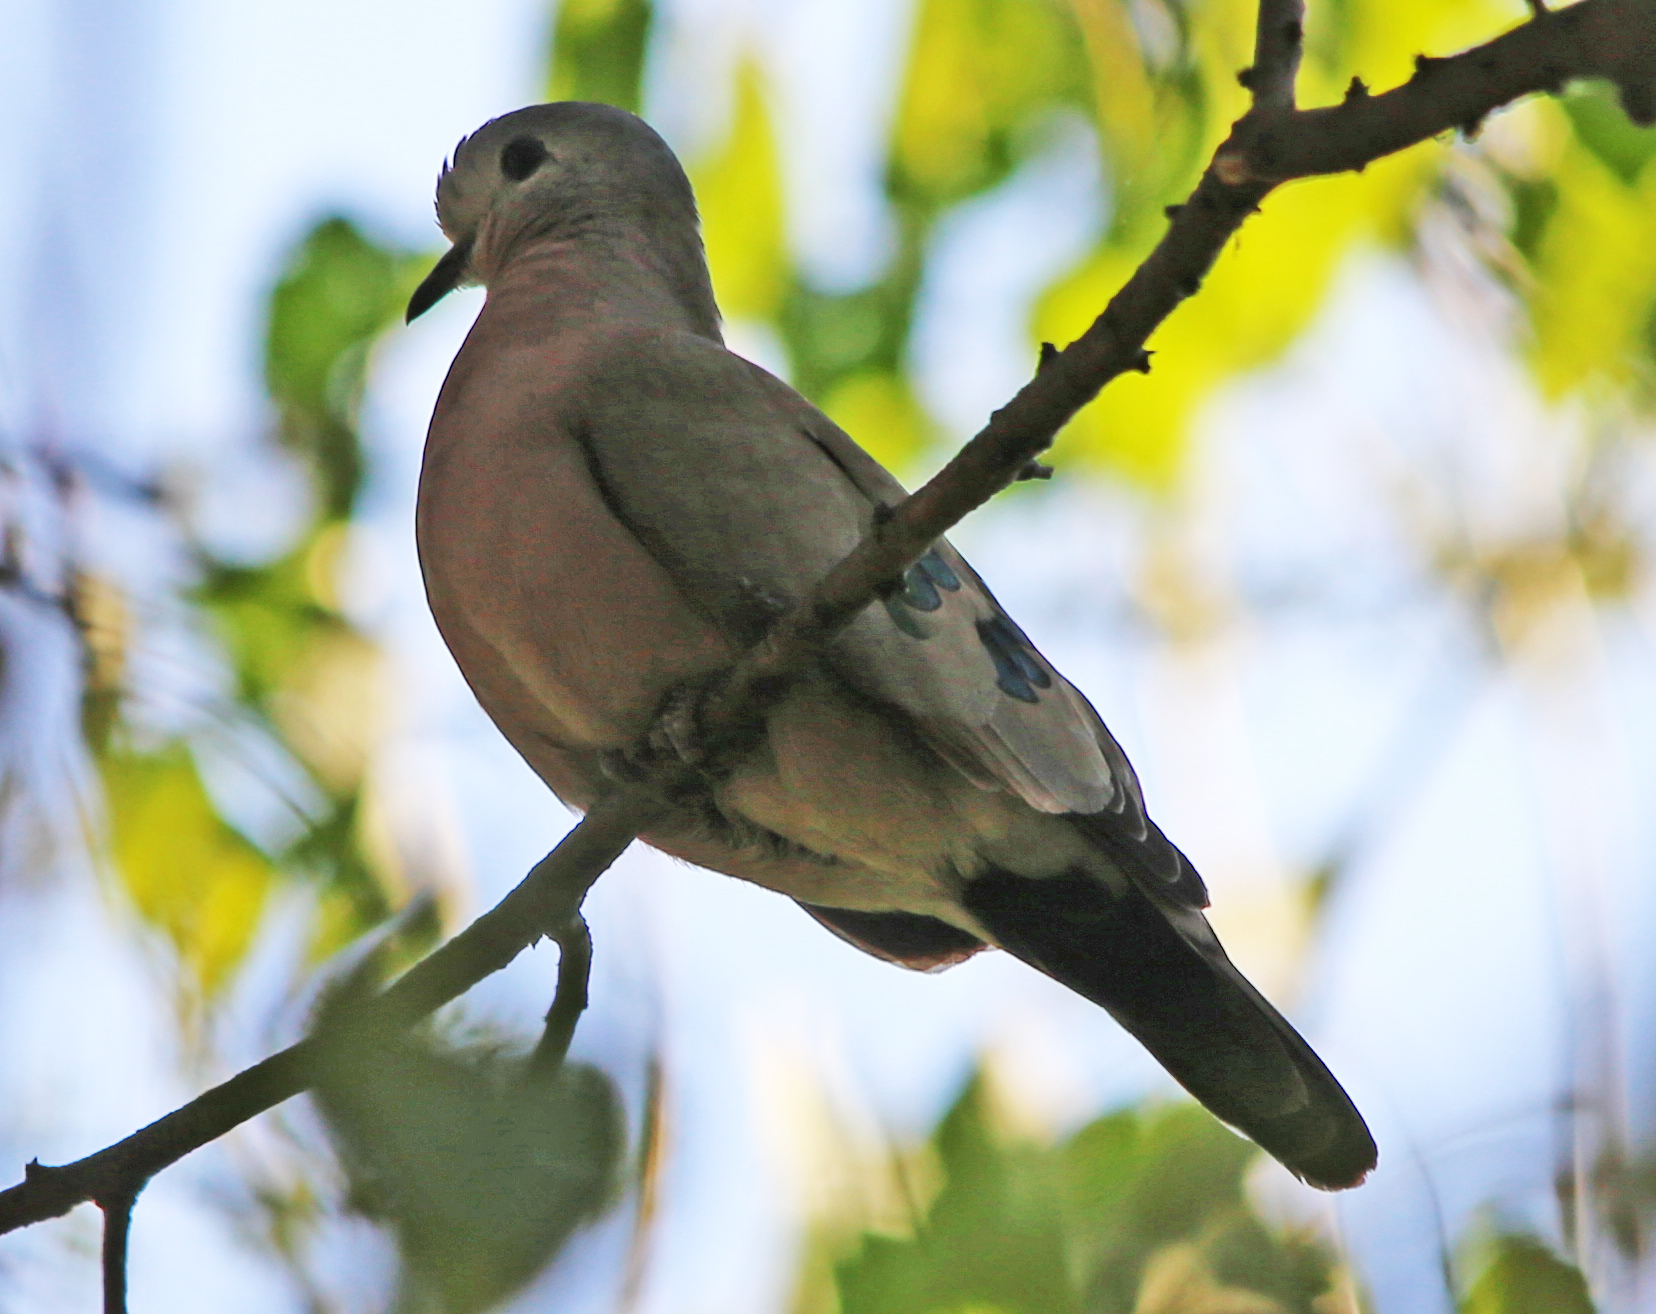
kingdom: Animalia
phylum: Chordata
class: Aves
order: Columbiformes
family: Columbidae
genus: Turtur
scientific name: Turtur chalcospilos
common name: Emerald-spotted wood dove
